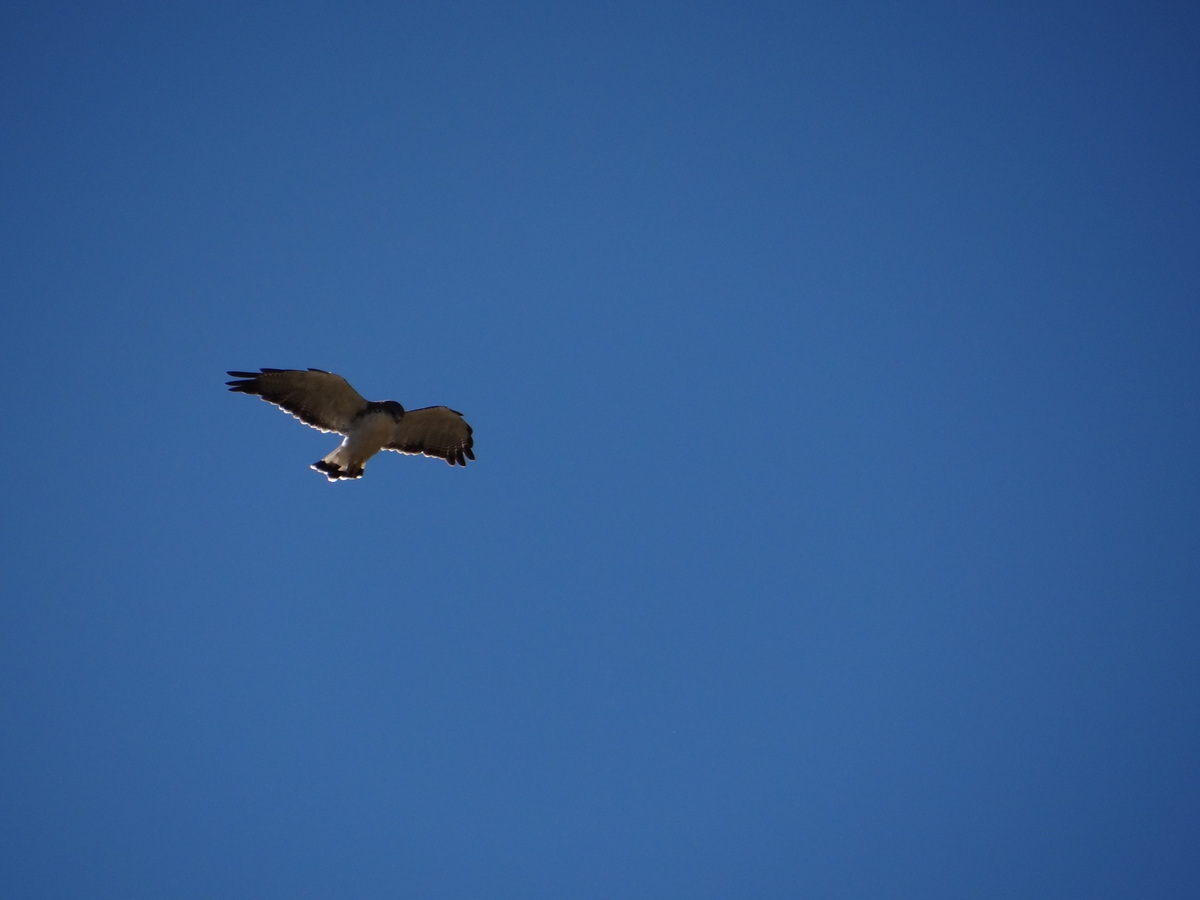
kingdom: Animalia
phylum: Chordata
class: Aves
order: Accipitriformes
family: Accipitridae
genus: Buteo
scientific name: Buteo polyosoma
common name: Variable hawk
